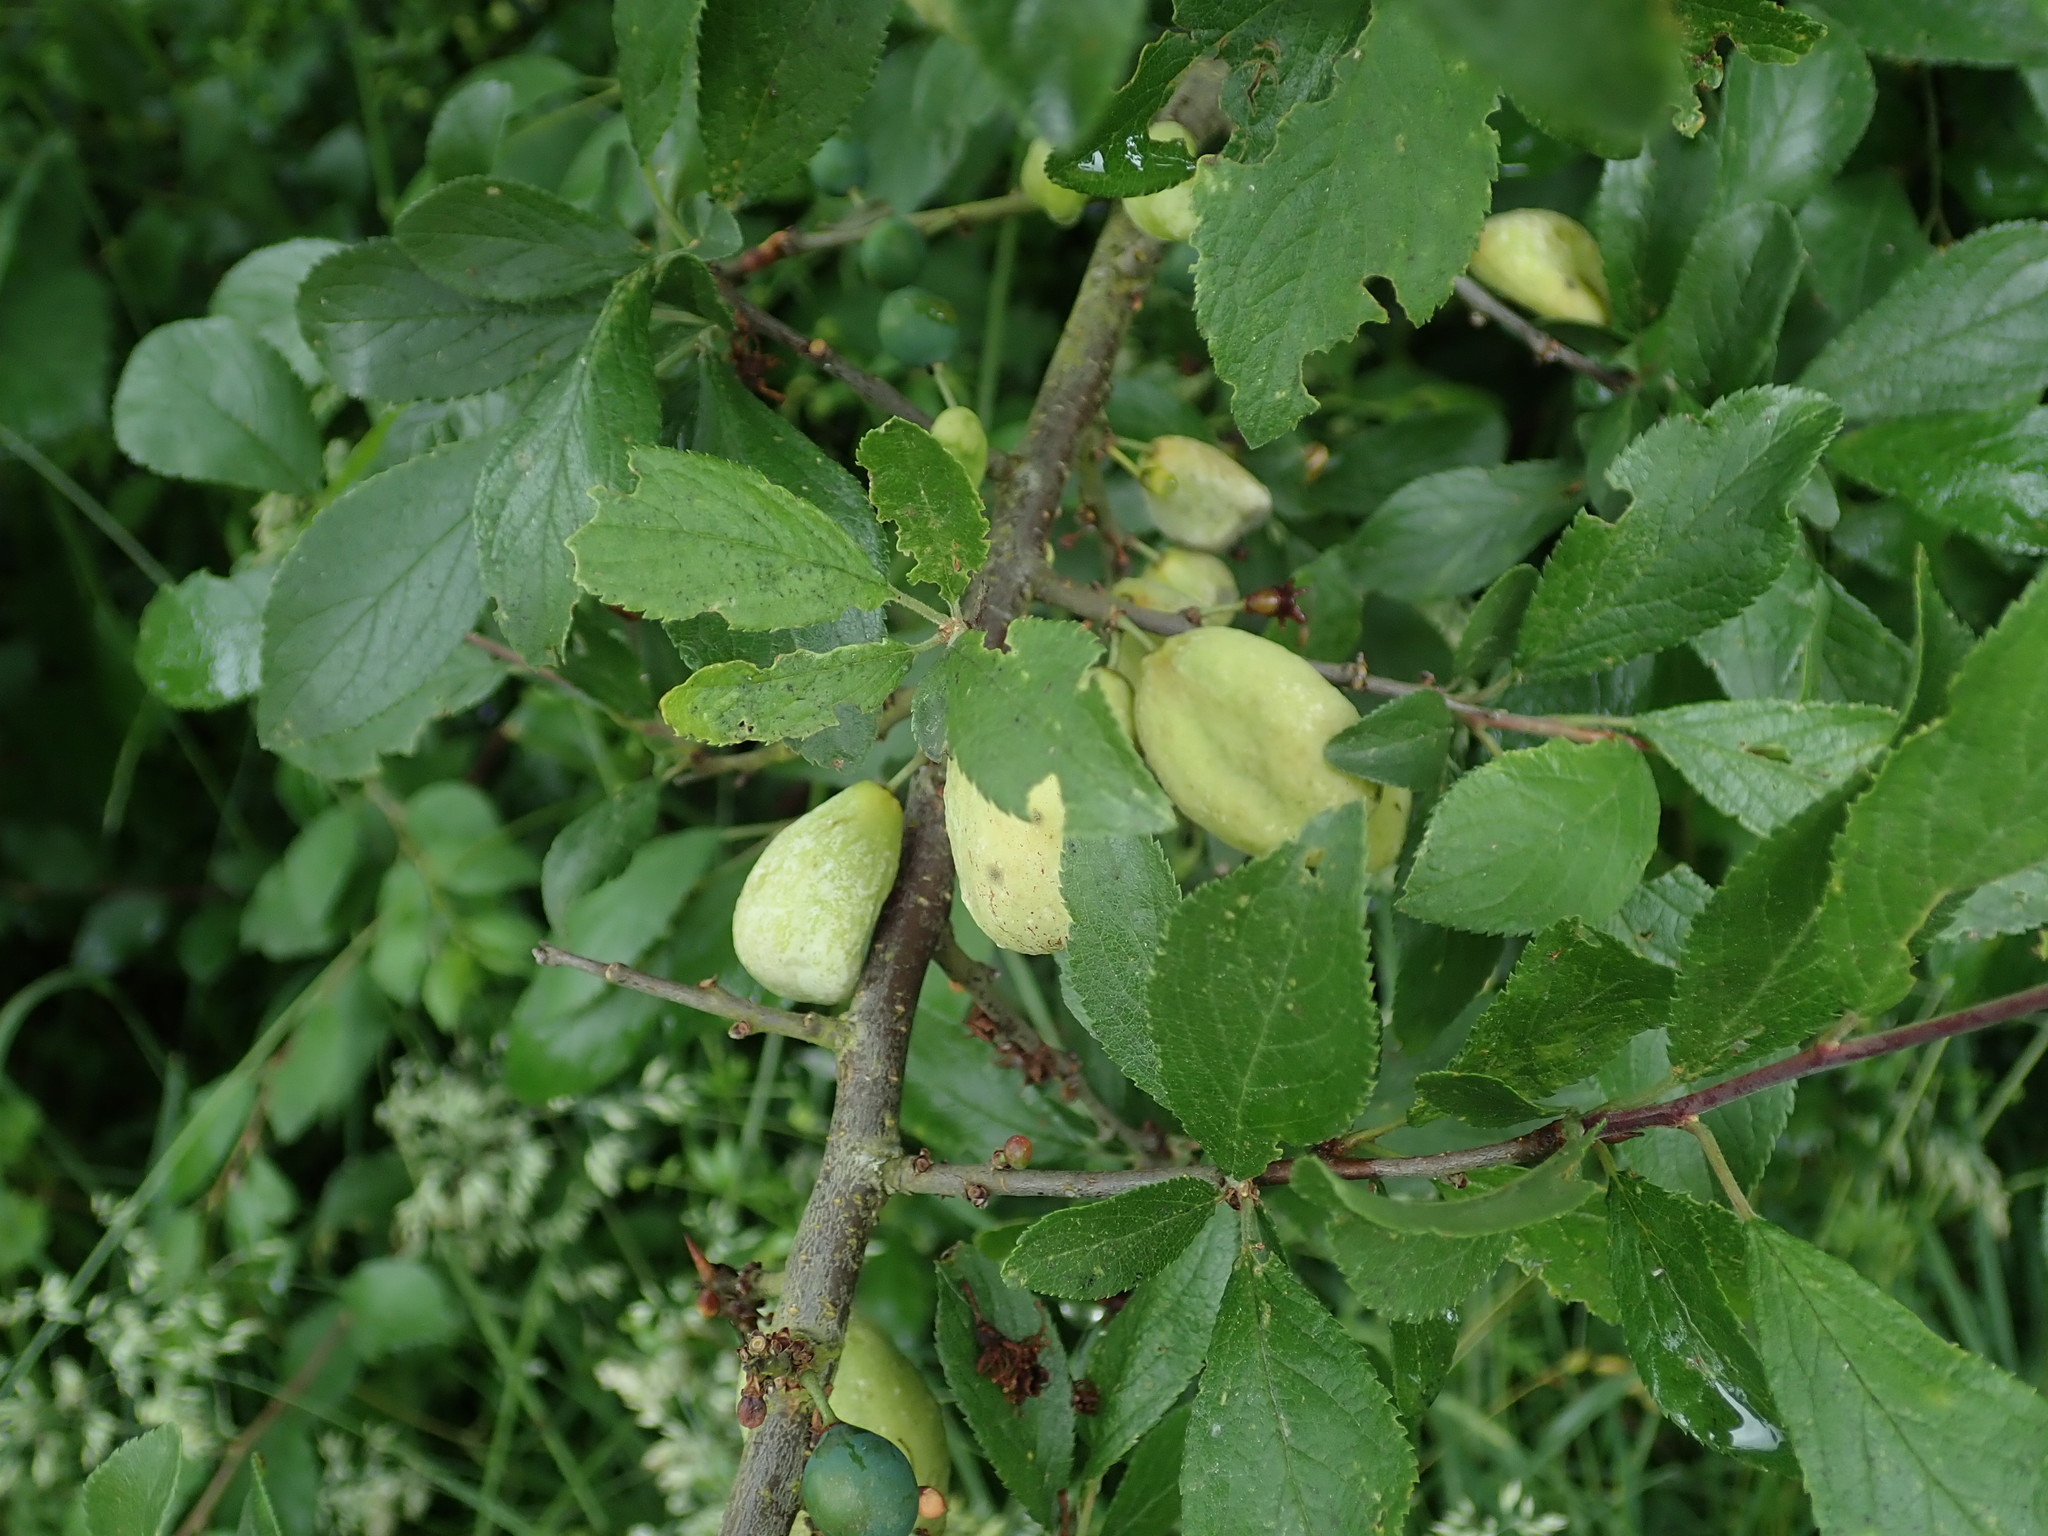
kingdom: Fungi
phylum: Ascomycota
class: Taphrinomycetes
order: Taphrinales
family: Taphrinaceae
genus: Taphrina
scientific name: Taphrina pruni
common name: Pocket plum
